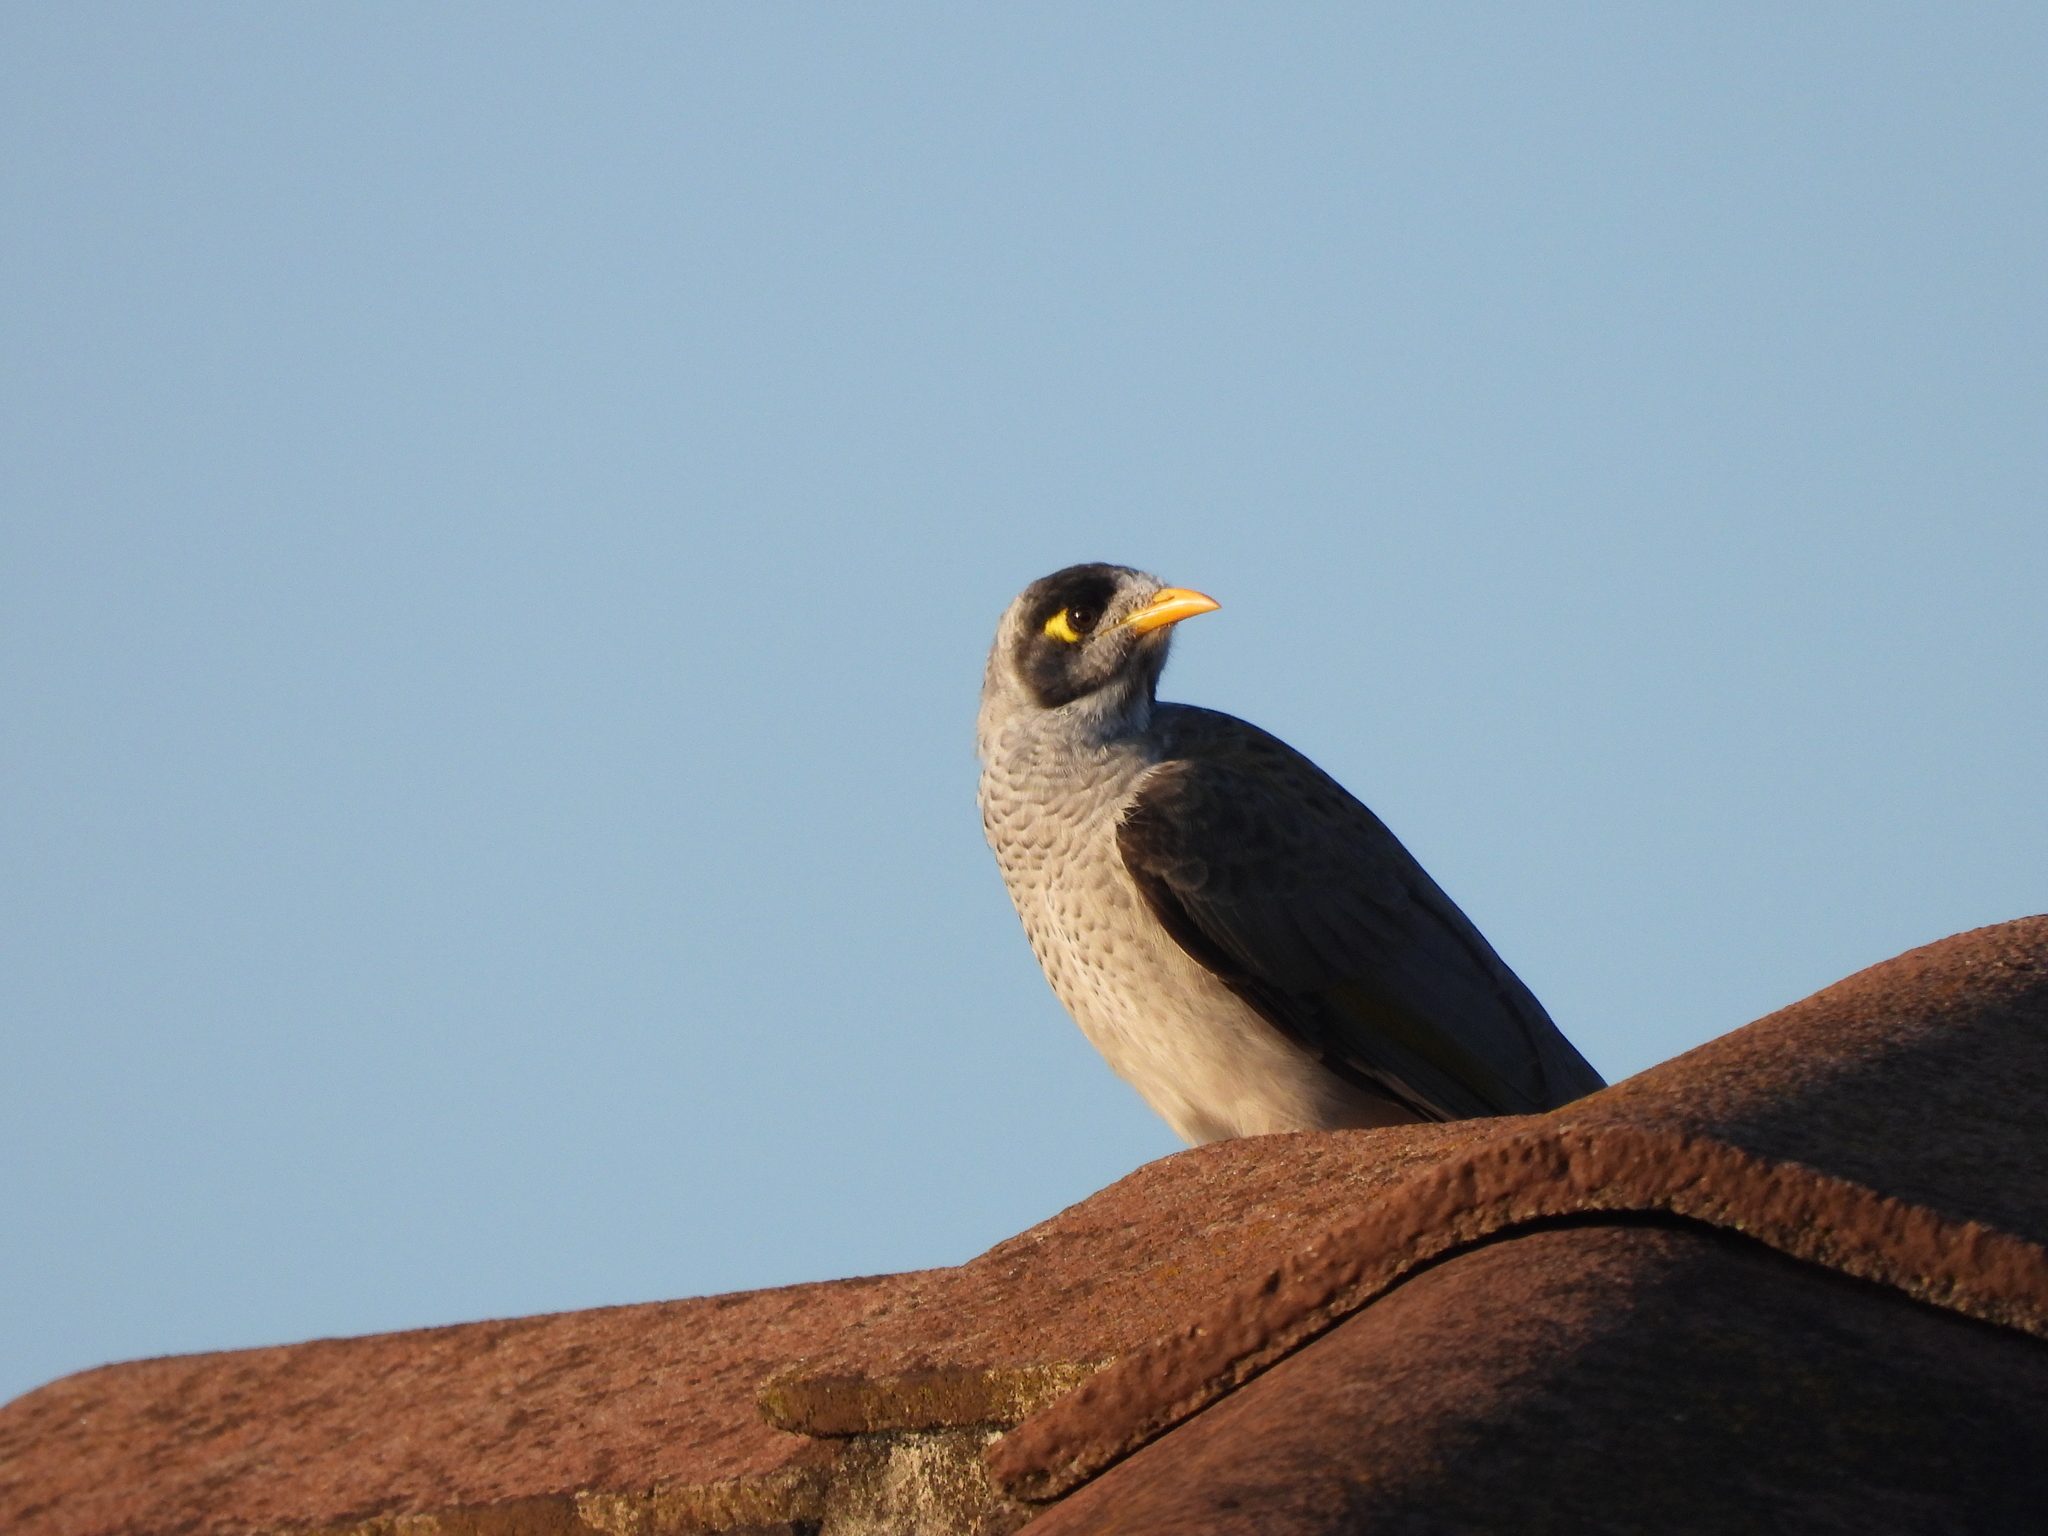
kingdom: Animalia
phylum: Chordata
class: Aves
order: Passeriformes
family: Meliphagidae
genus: Manorina
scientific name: Manorina melanocephala
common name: Noisy miner
